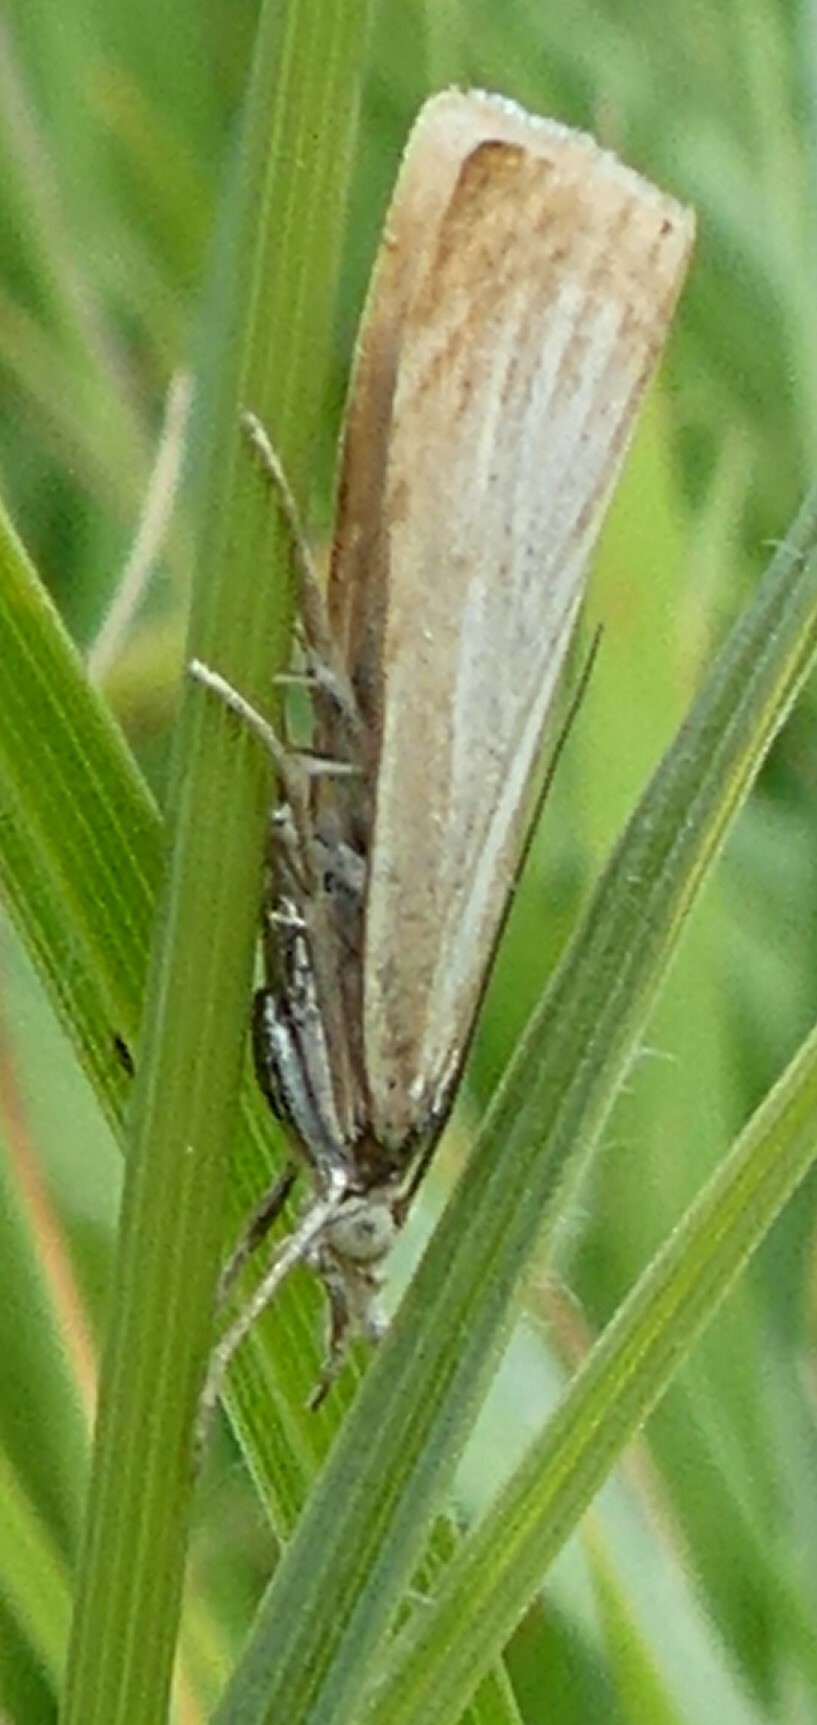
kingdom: Animalia
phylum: Arthropoda
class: Insecta
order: Lepidoptera
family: Crambidae
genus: Chrysoteuchia
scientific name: Chrysoteuchia culmella
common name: Garden grass-veneer
